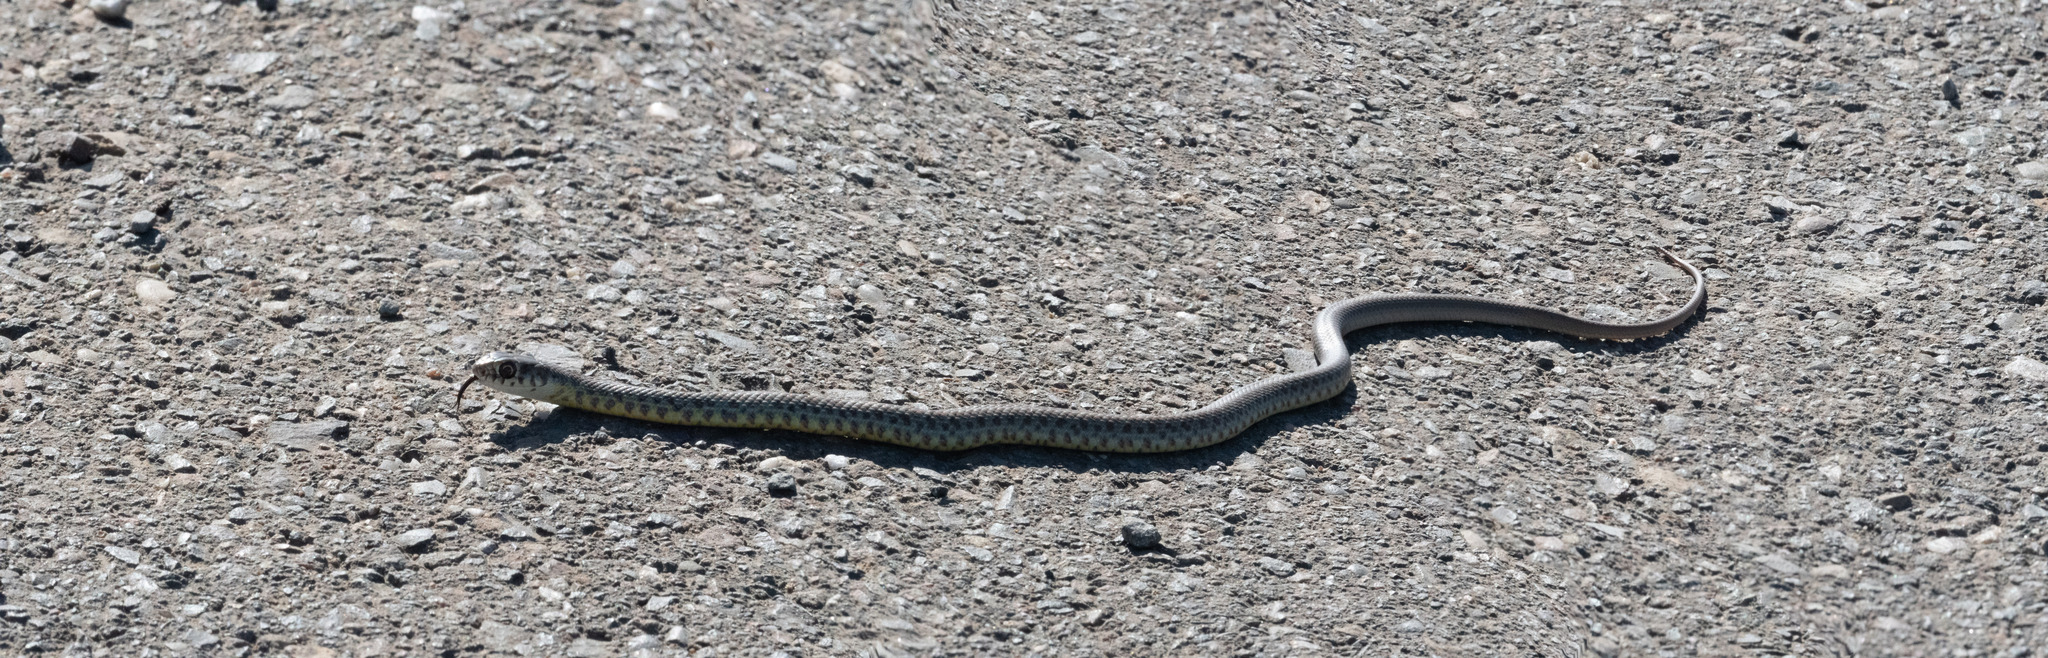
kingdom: Animalia
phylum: Chordata
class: Squamata
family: Colubridae
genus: Coluber
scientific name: Coluber constrictor
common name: Eastern racer
